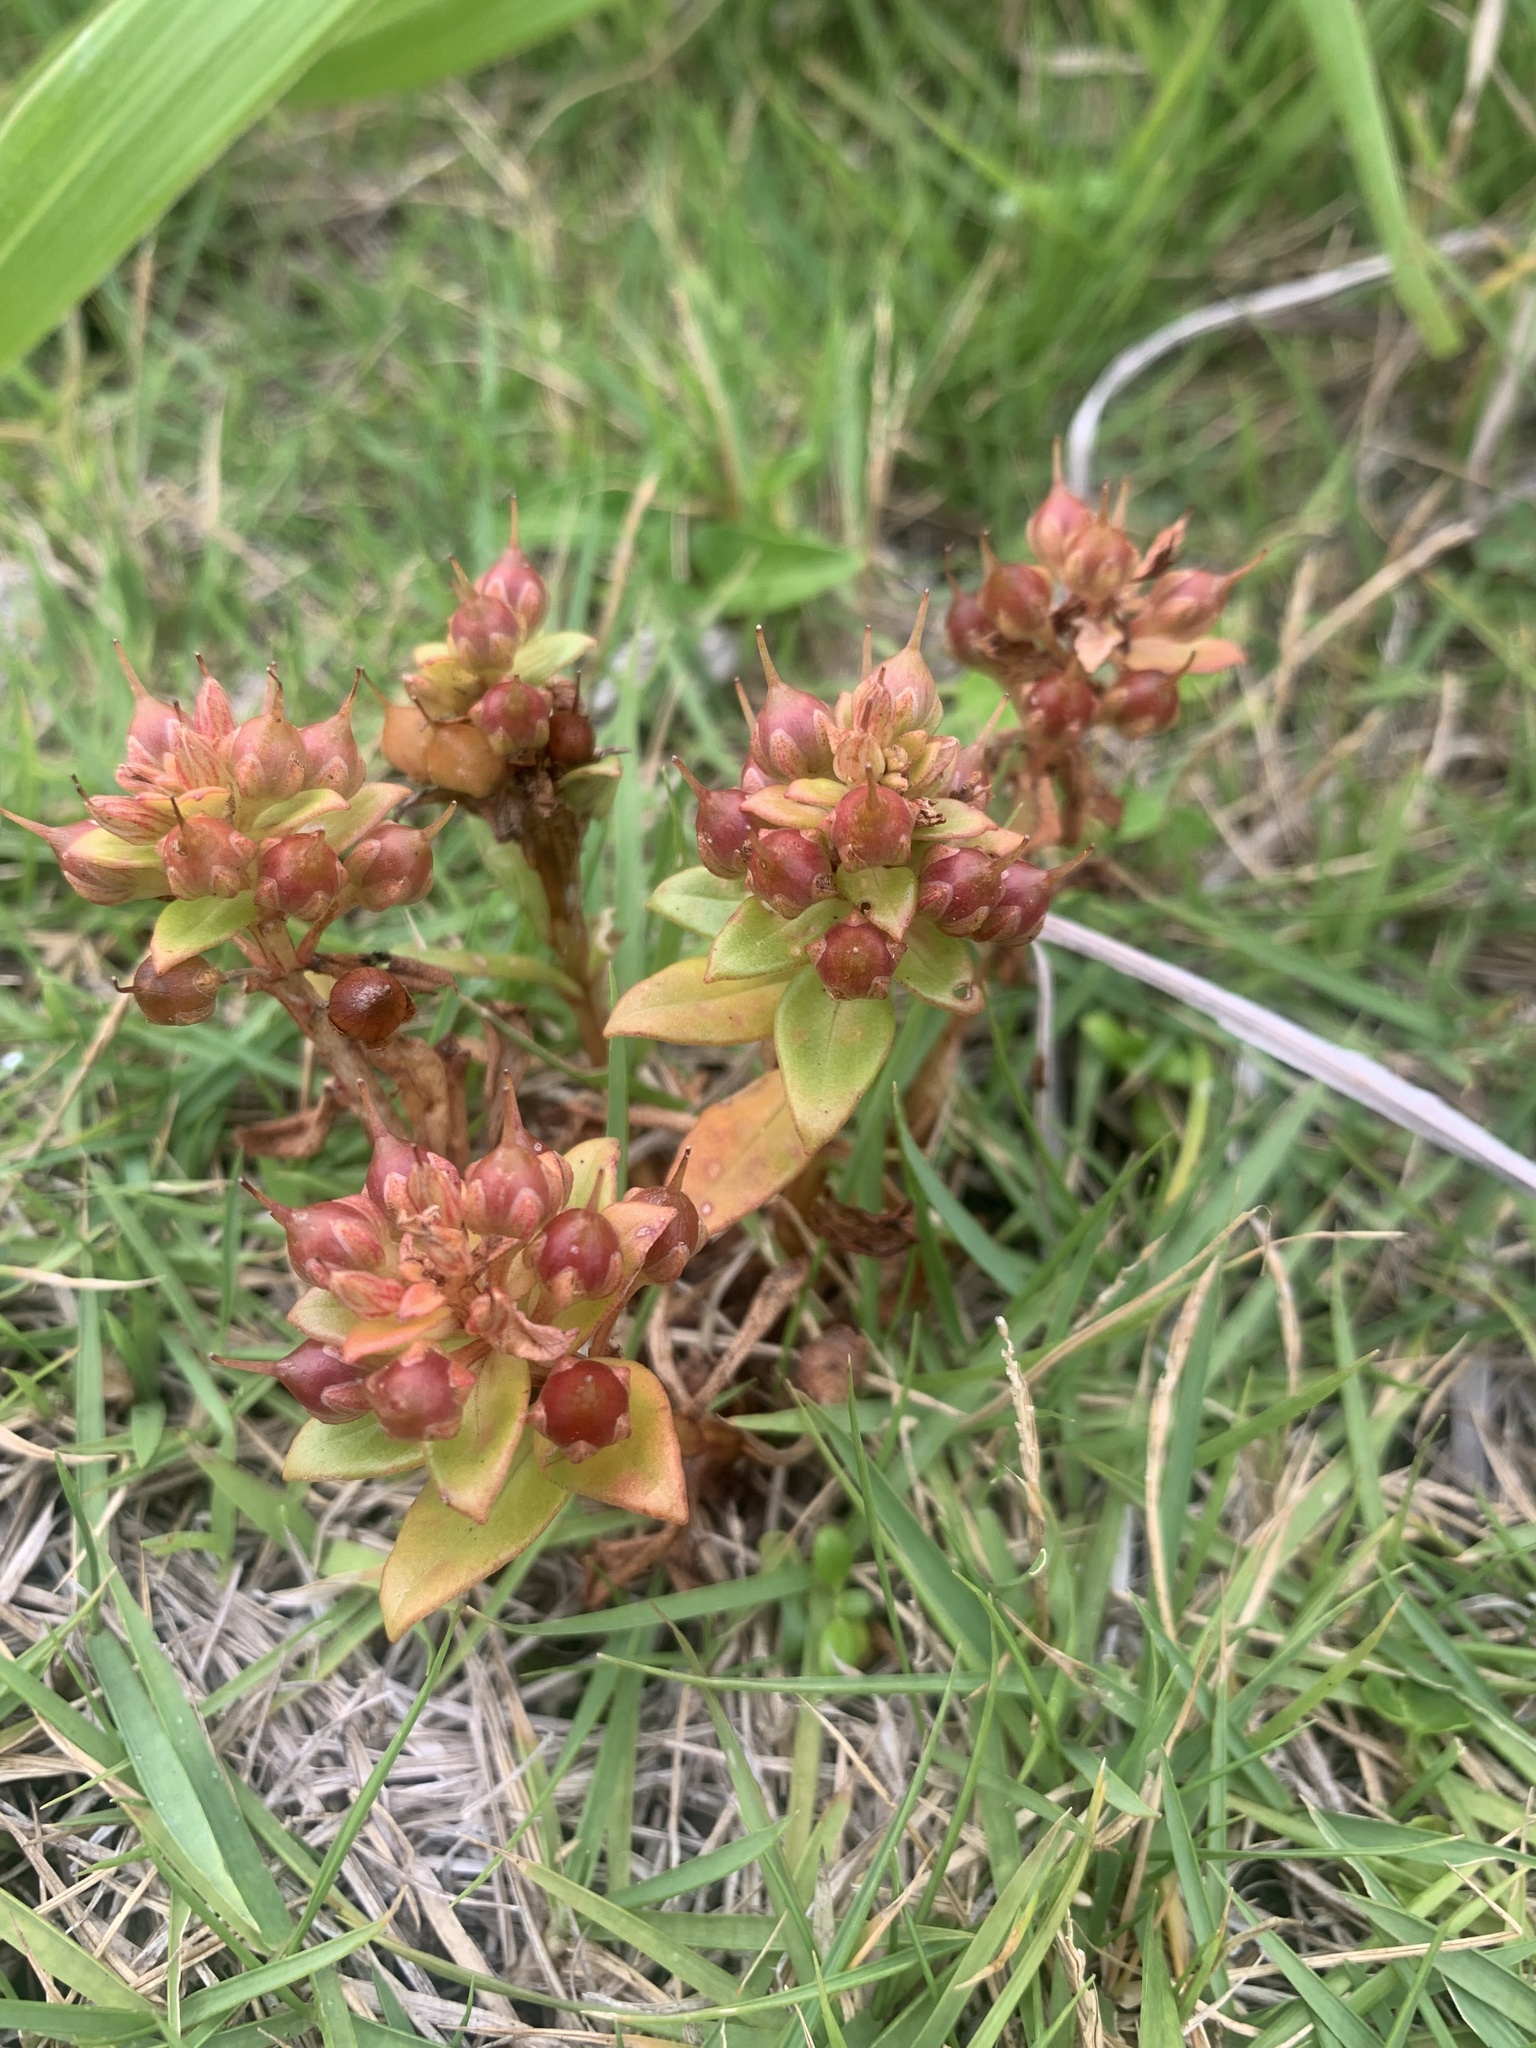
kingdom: Plantae
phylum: Tracheophyta
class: Magnoliopsida
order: Ericales
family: Primulaceae
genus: Lysimachia
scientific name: Lysimachia mauritiana
